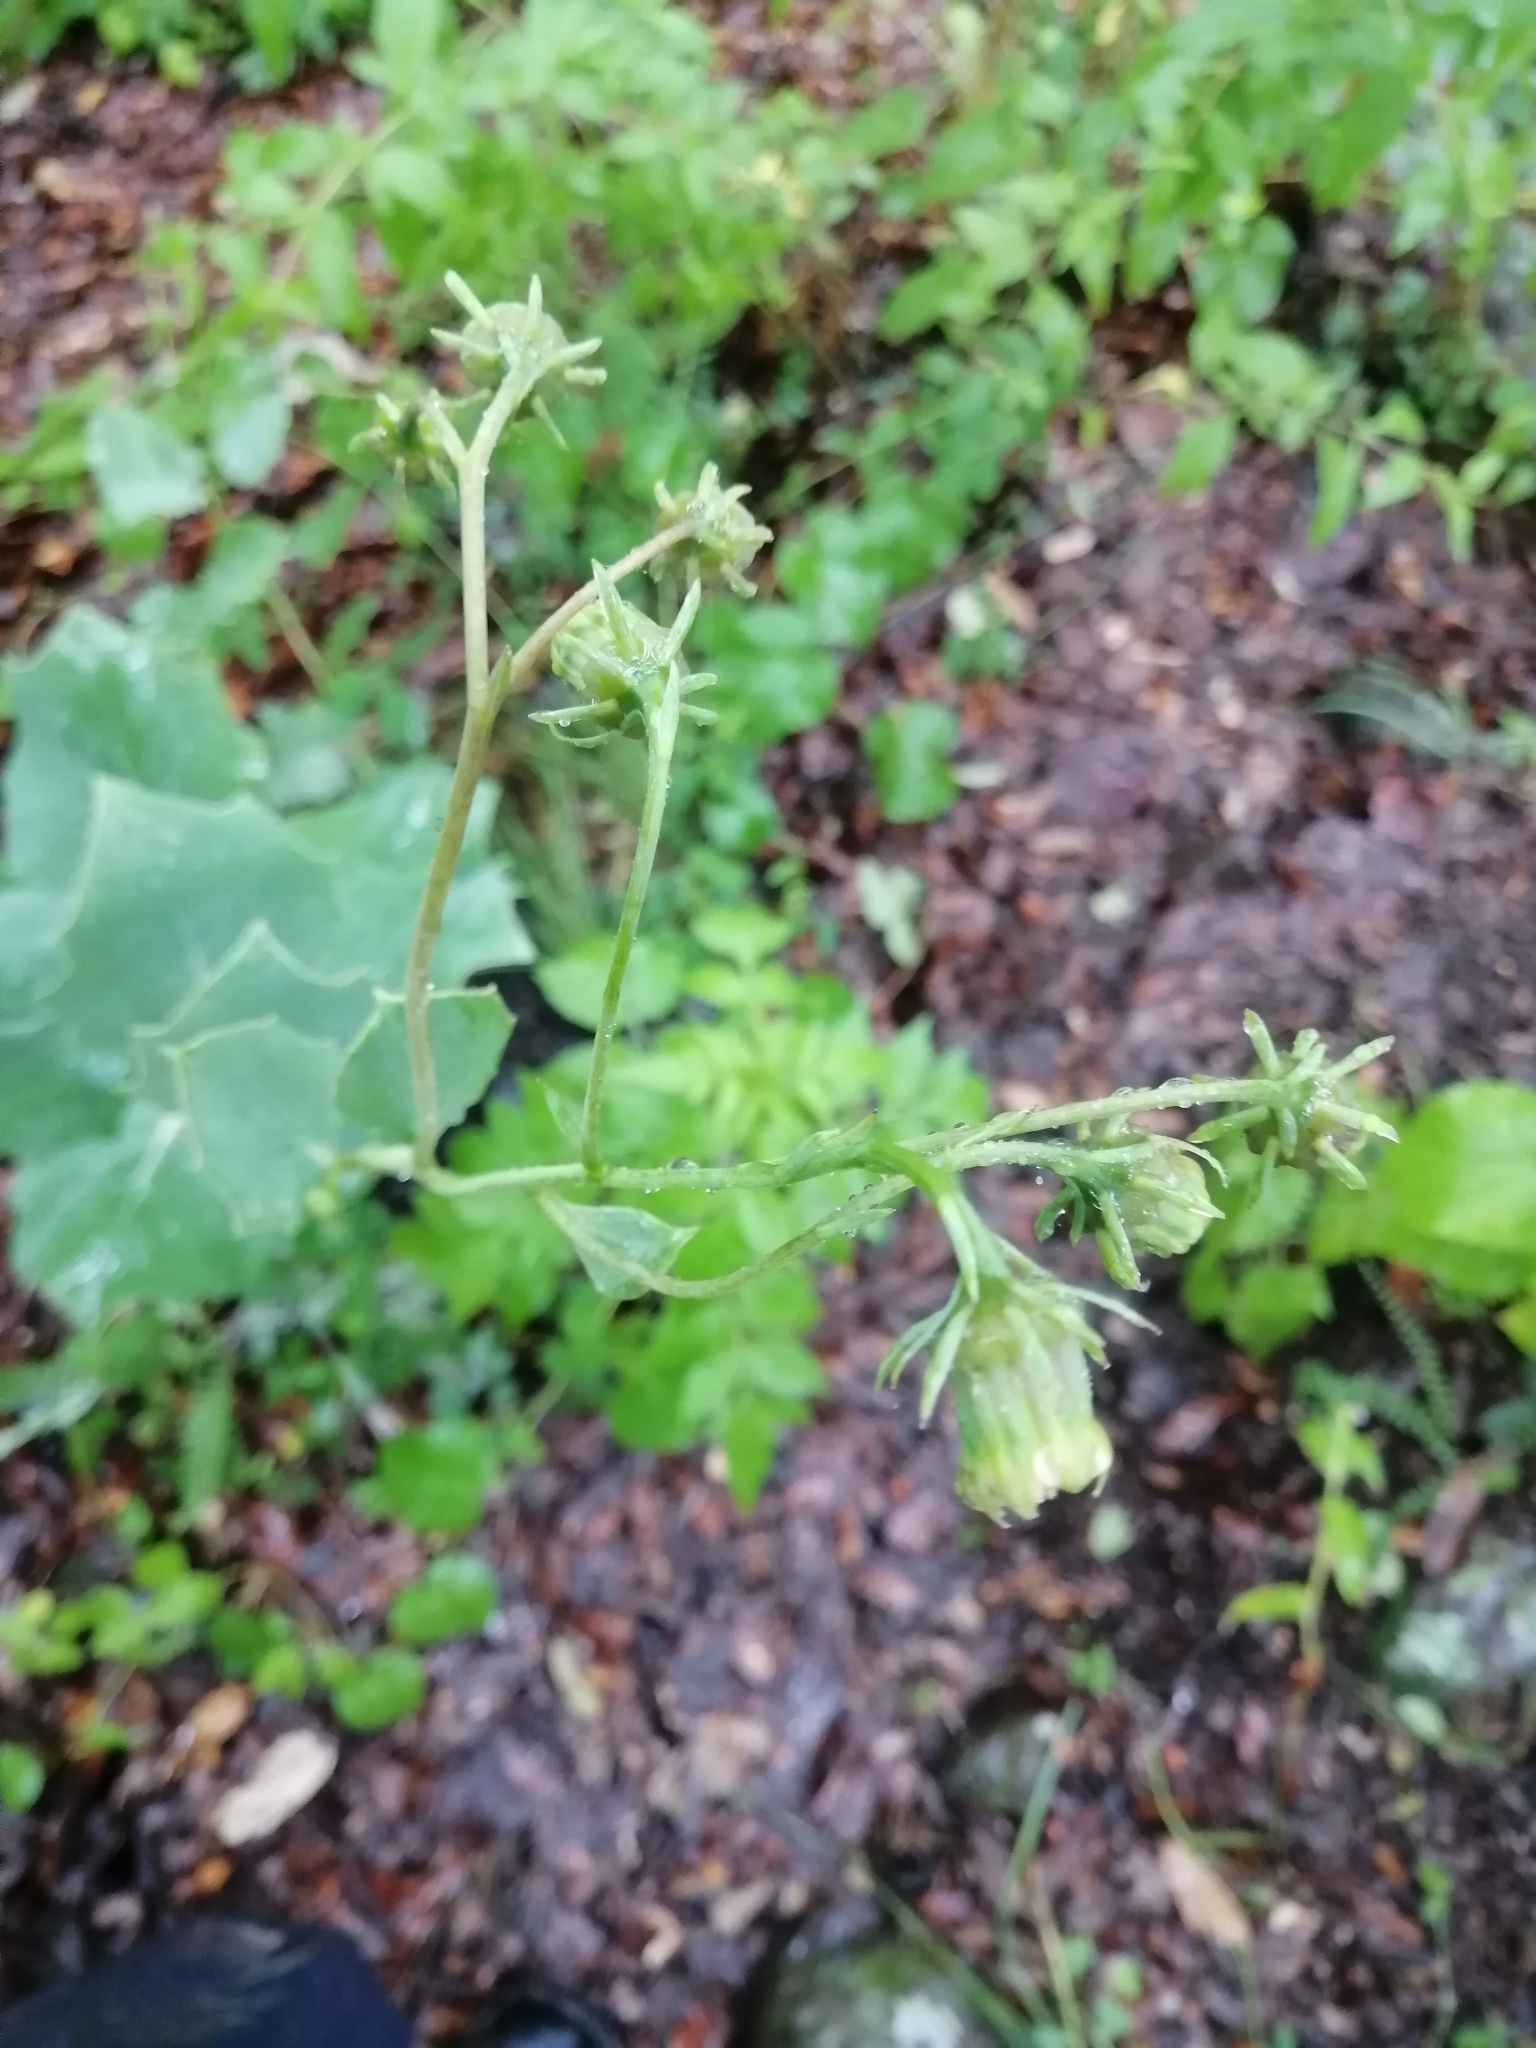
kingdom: Plantae
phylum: Tracheophyta
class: Magnoliopsida
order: Asterales
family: Asteraceae
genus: Roldana
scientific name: Roldana sessilifolia
